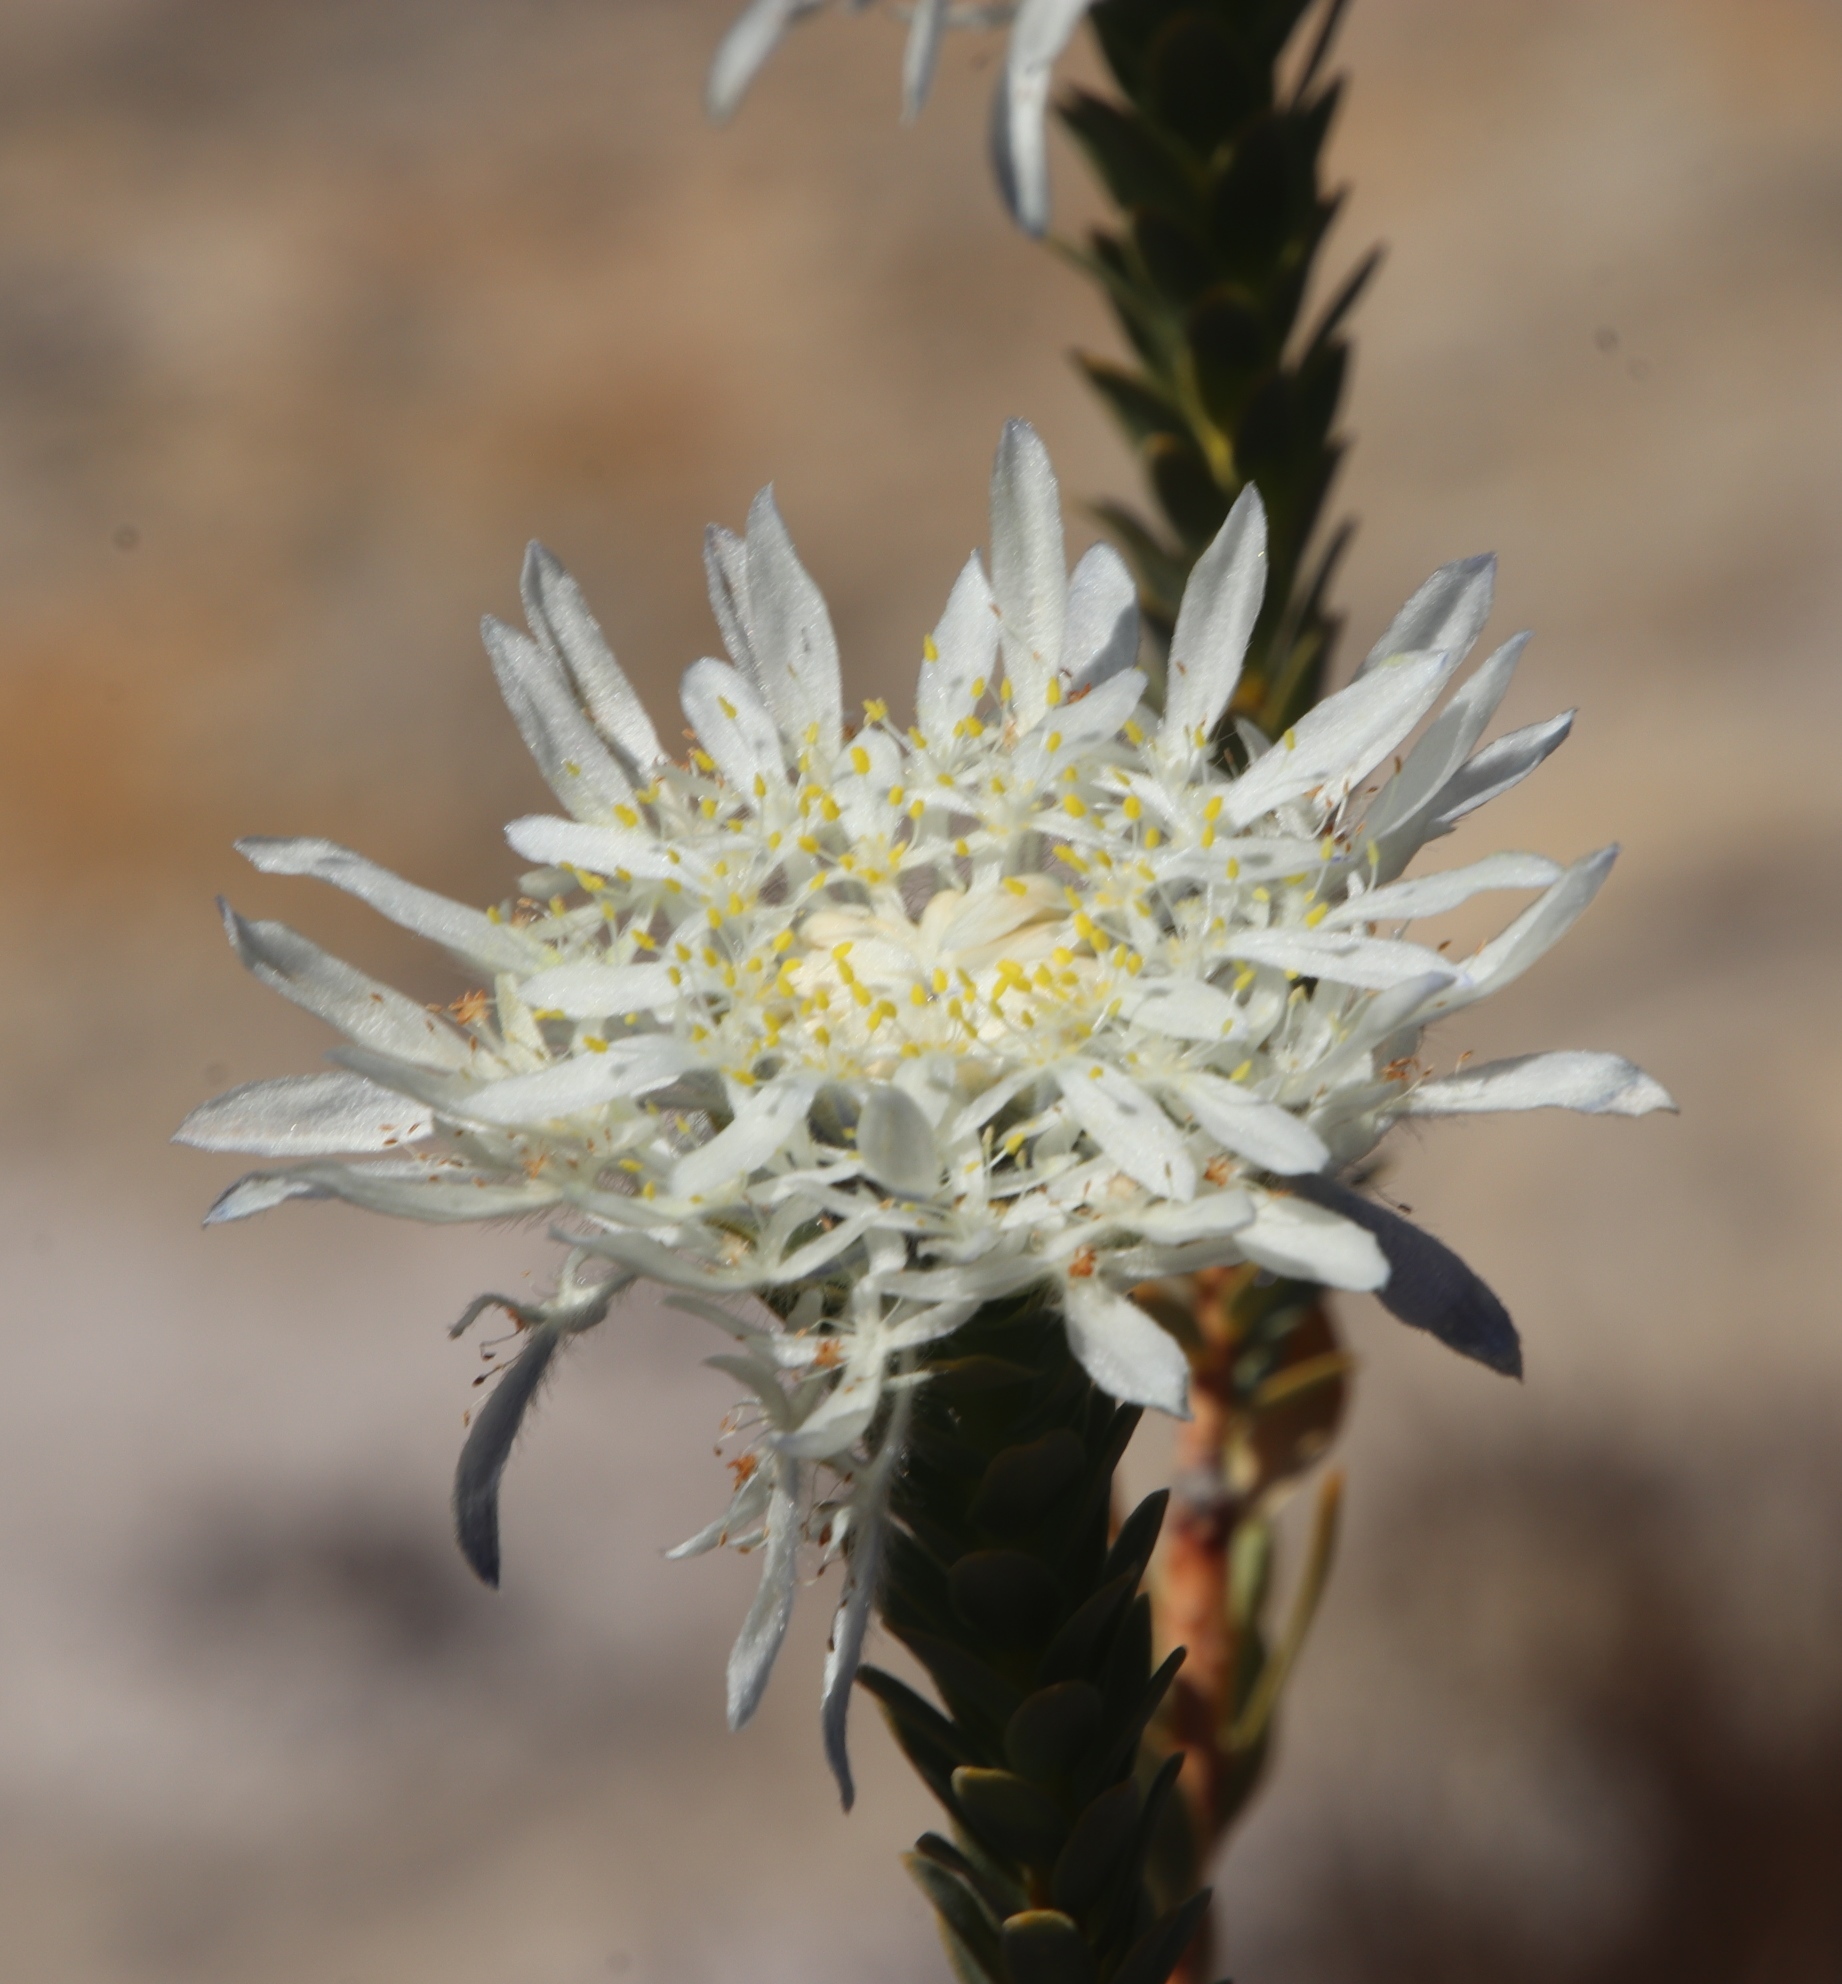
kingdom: Plantae
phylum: Tracheophyta
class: Magnoliopsida
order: Malvales
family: Thymelaeaceae
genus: Lachnaea
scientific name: Lachnaea filamentosa
